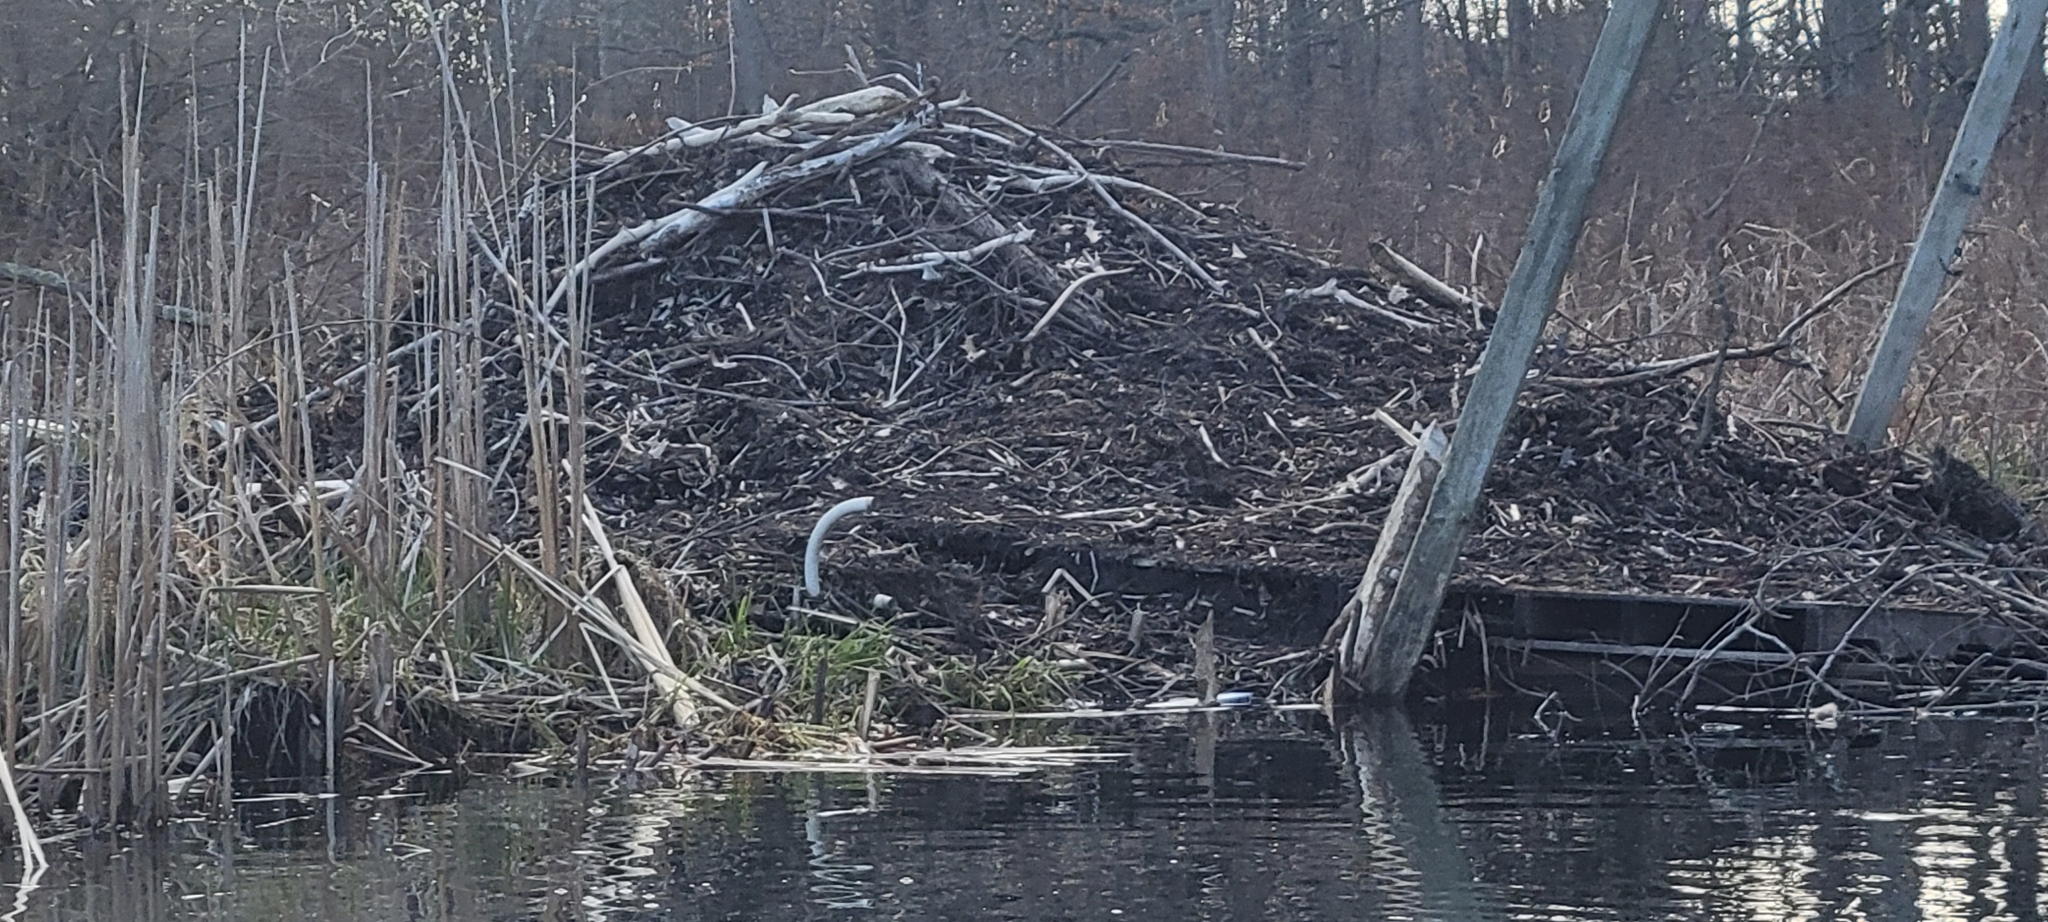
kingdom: Animalia
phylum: Chordata
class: Mammalia
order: Rodentia
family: Castoridae
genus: Castor
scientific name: Castor canadensis
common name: American beaver
